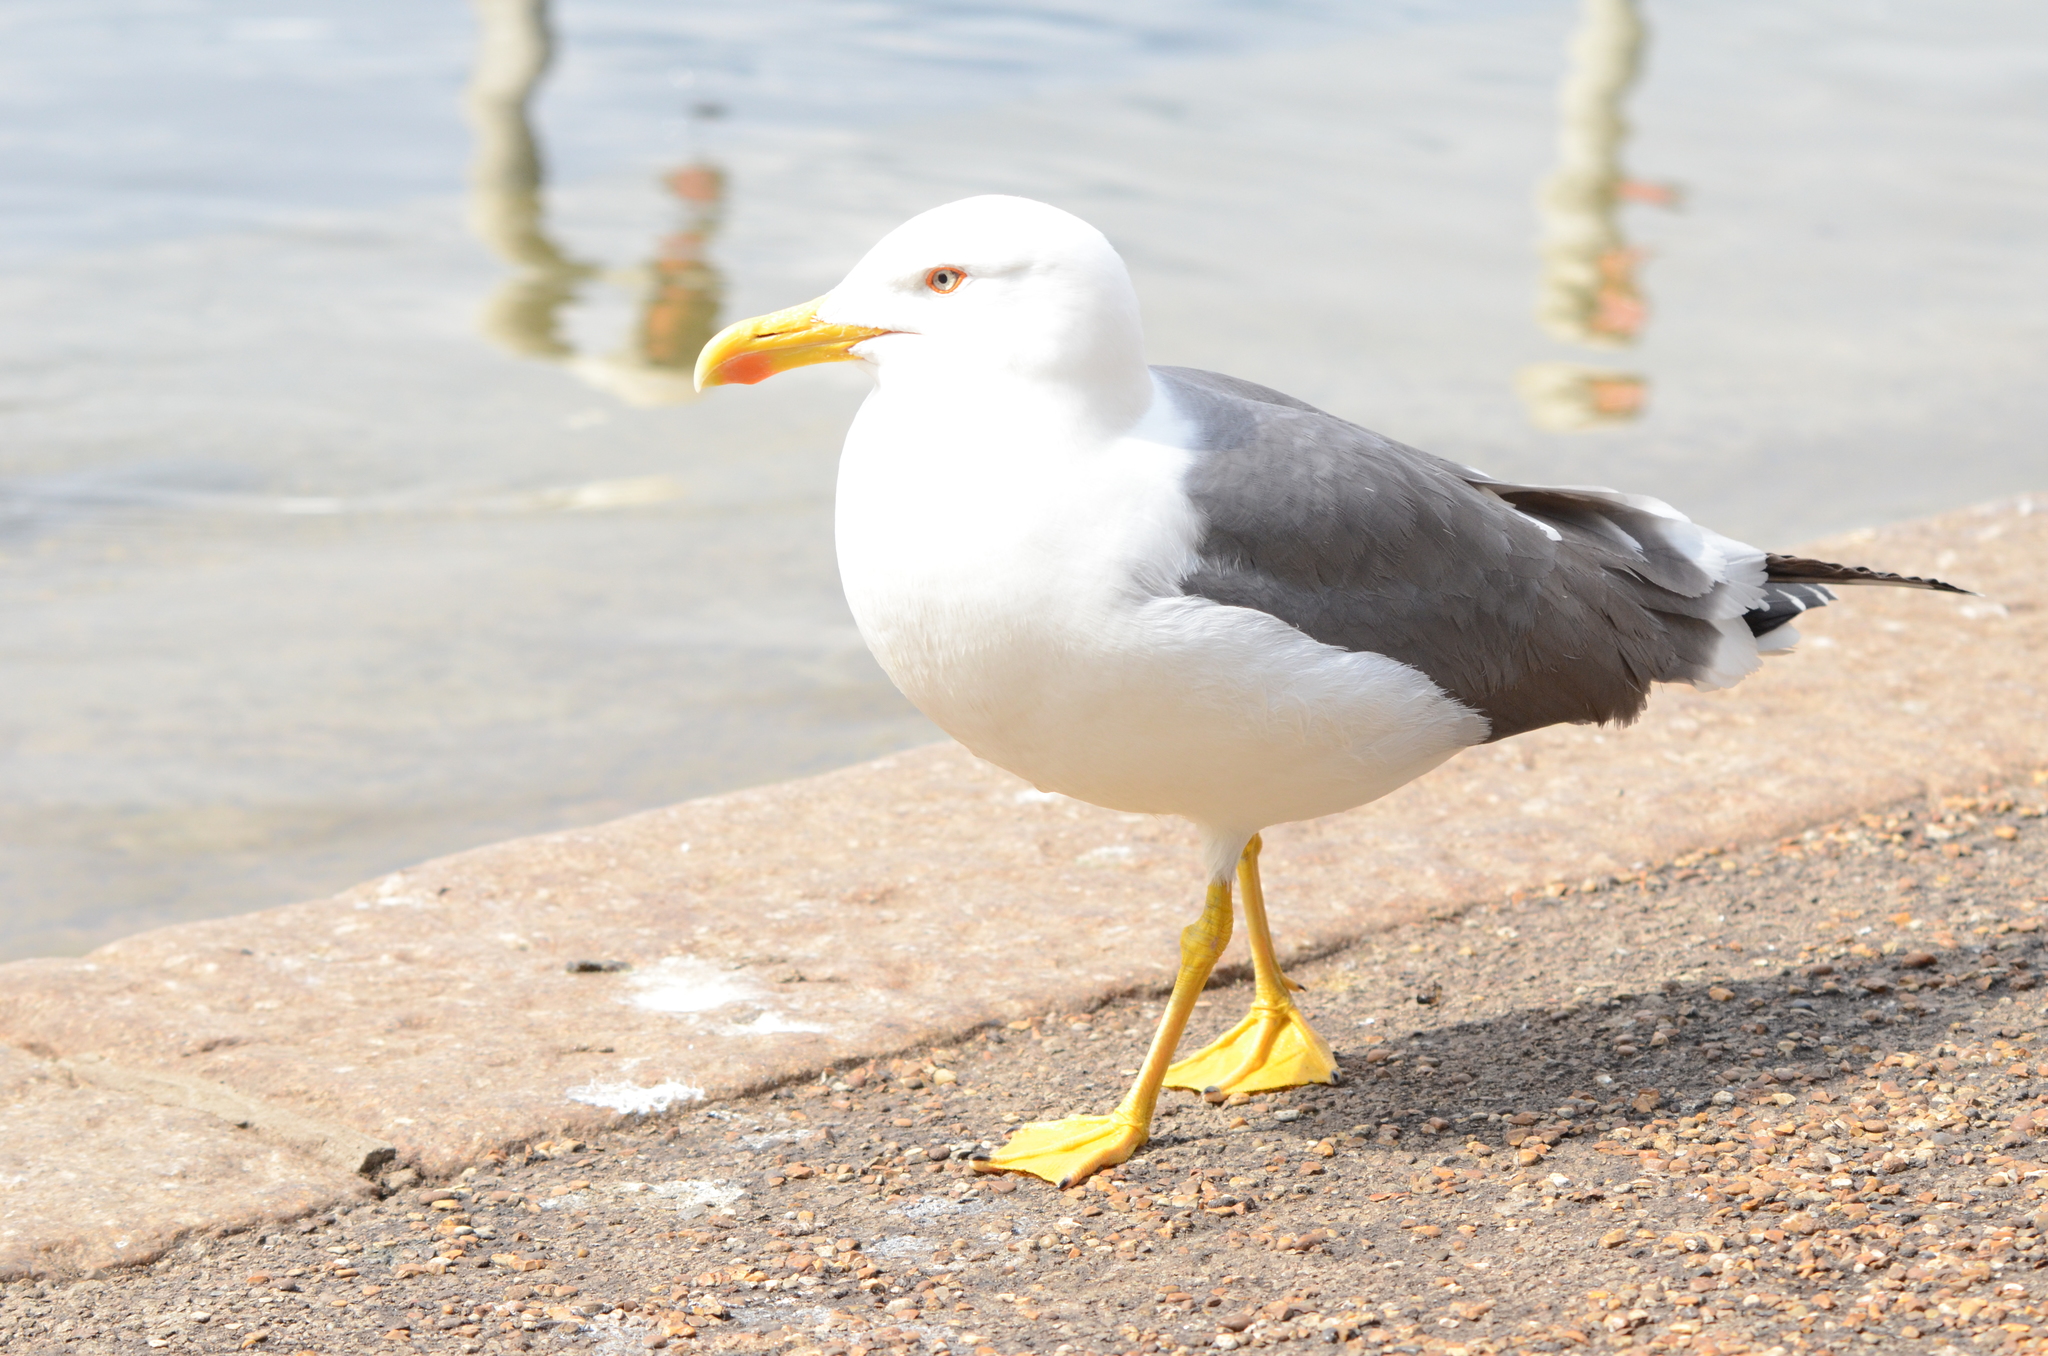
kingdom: Animalia
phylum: Chordata
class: Aves
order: Charadriiformes
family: Laridae
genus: Larus
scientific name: Larus fuscus
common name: Lesser black-backed gull
